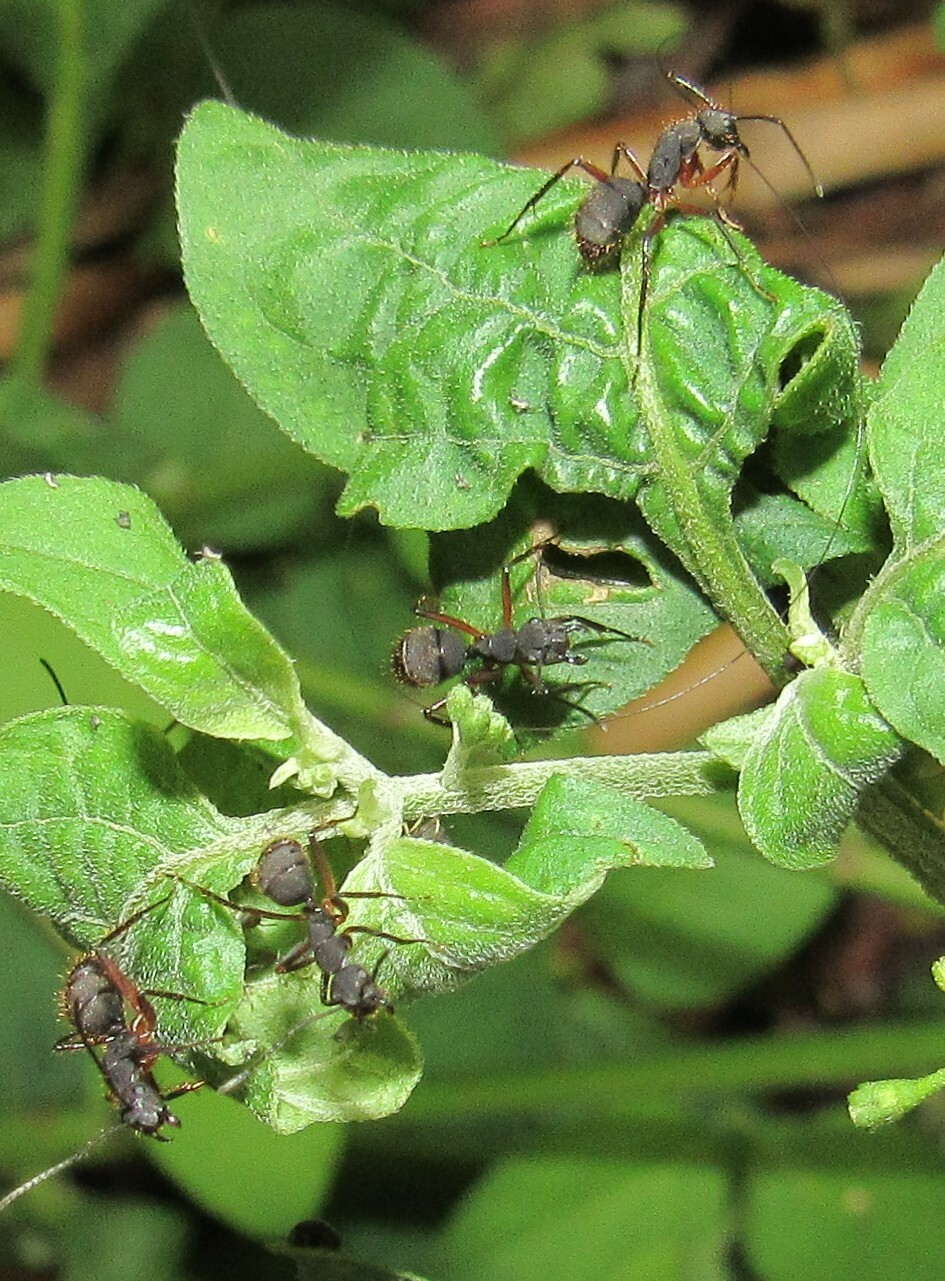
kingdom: Animalia
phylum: Arthropoda
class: Insecta
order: Hymenoptera
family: Formicidae
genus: Camponotus
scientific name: Camponotus rufipes
